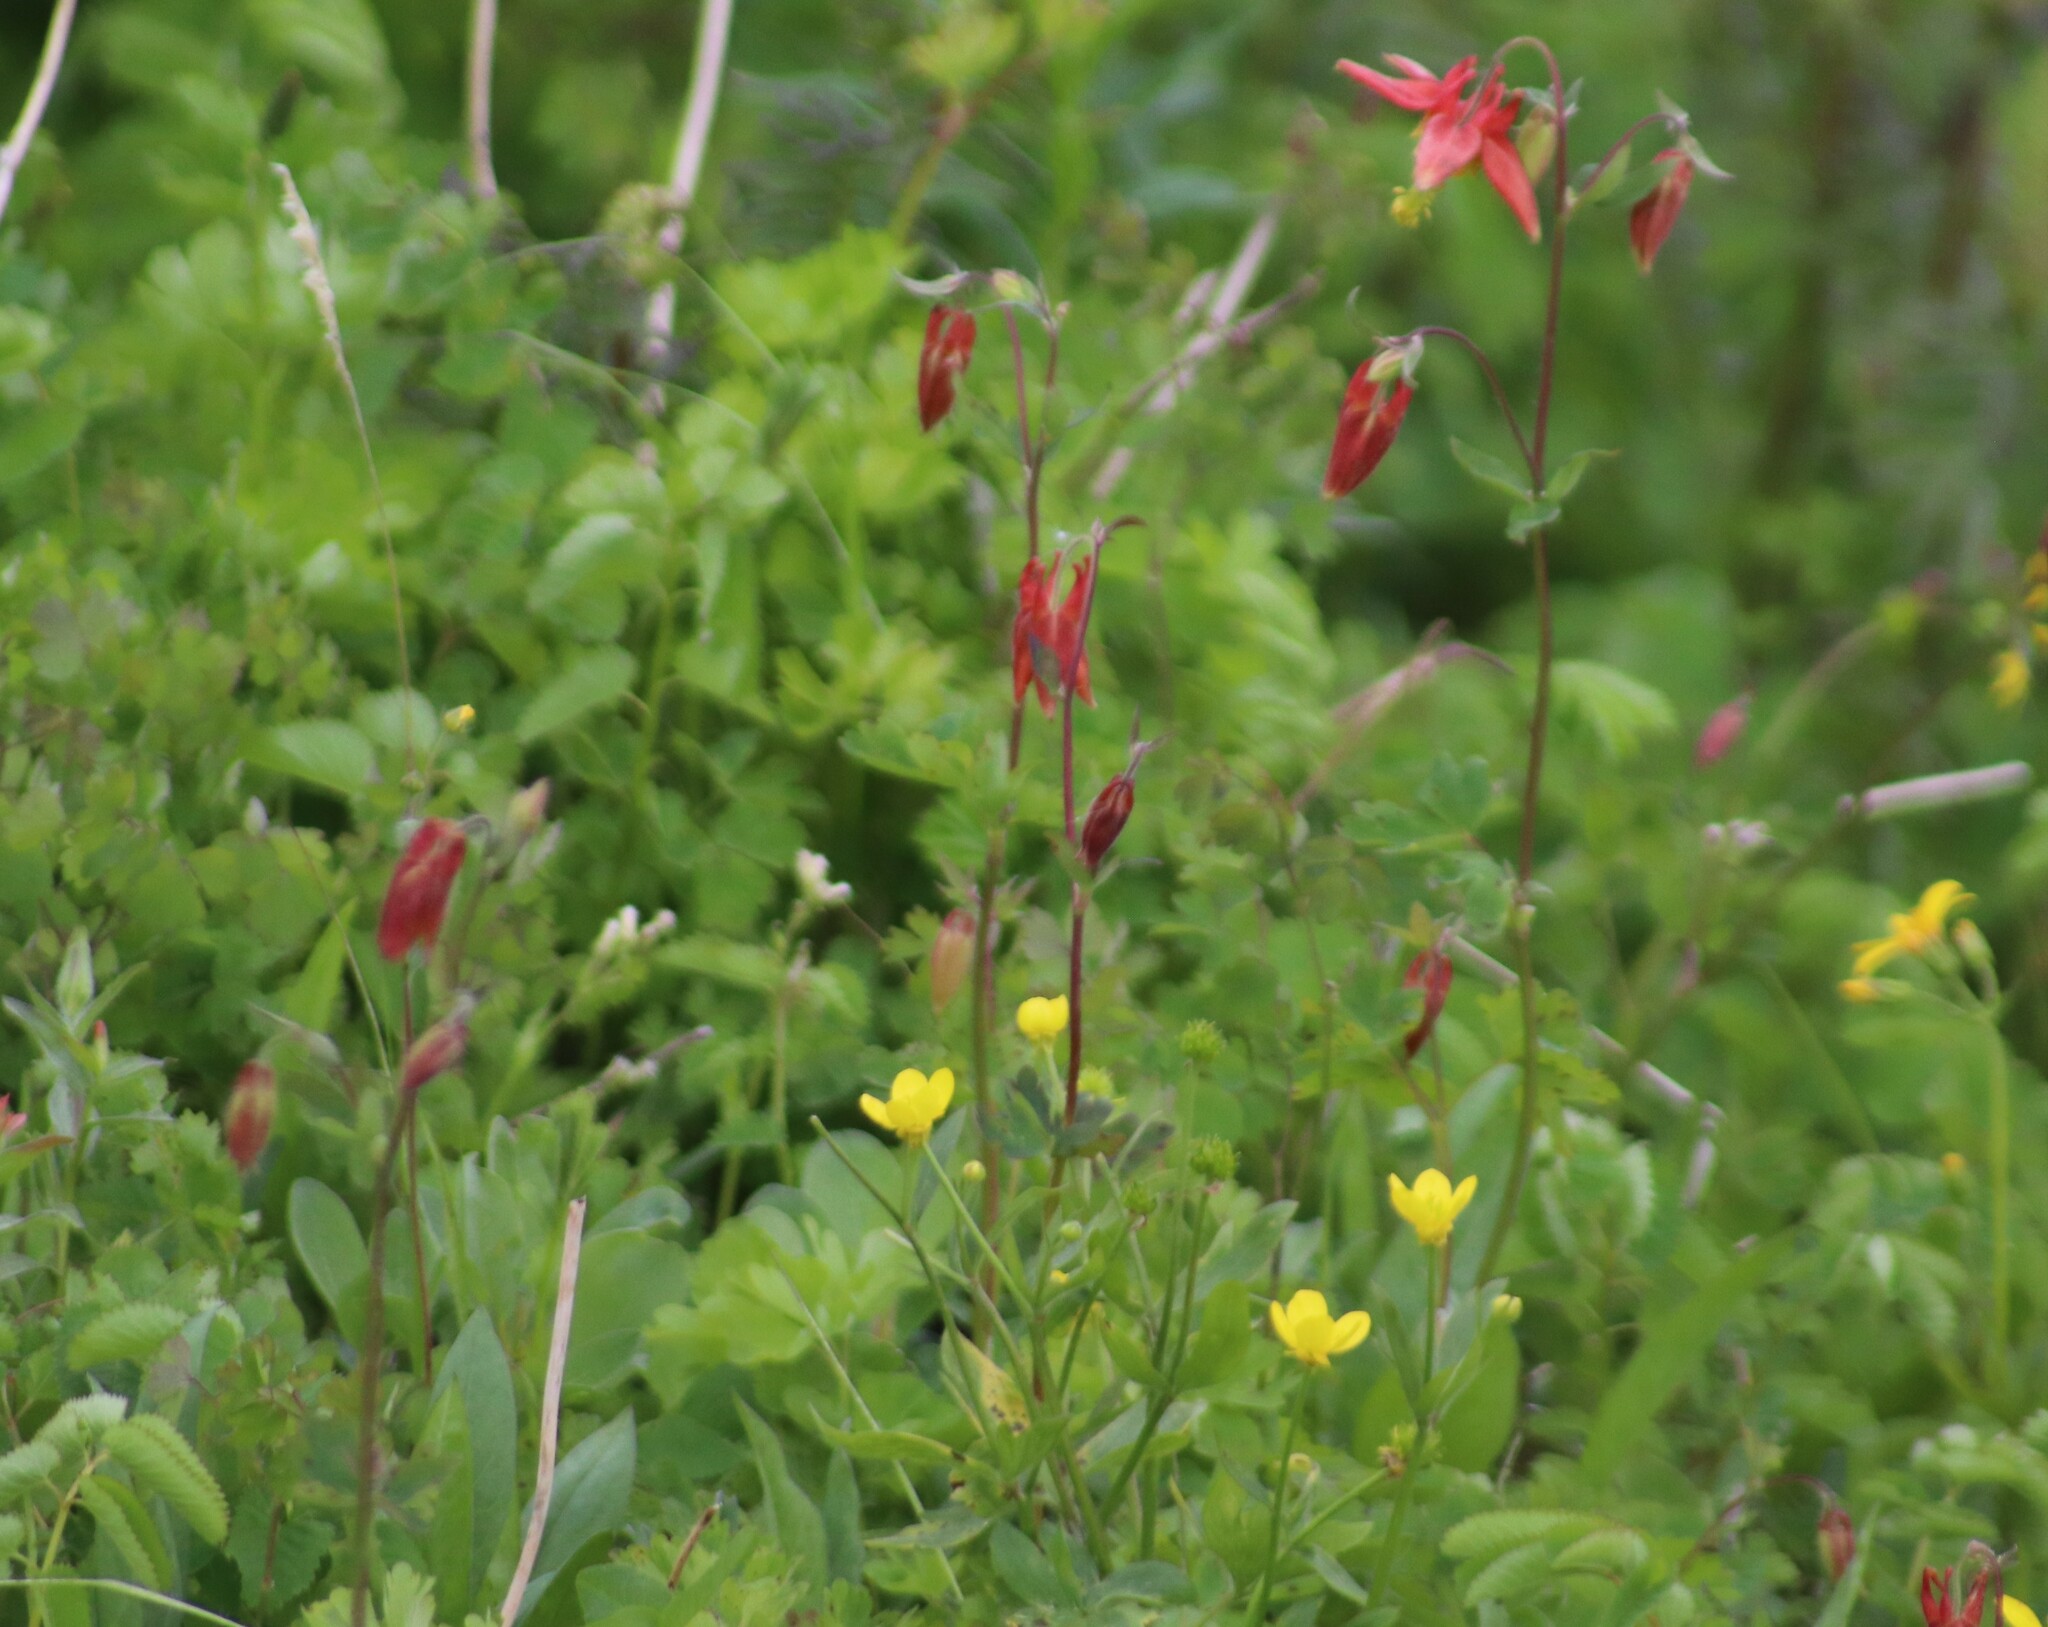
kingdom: Plantae
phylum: Tracheophyta
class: Magnoliopsida
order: Ranunculales
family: Ranunculaceae
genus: Aquilegia
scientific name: Aquilegia formosa
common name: Sitka columbine
